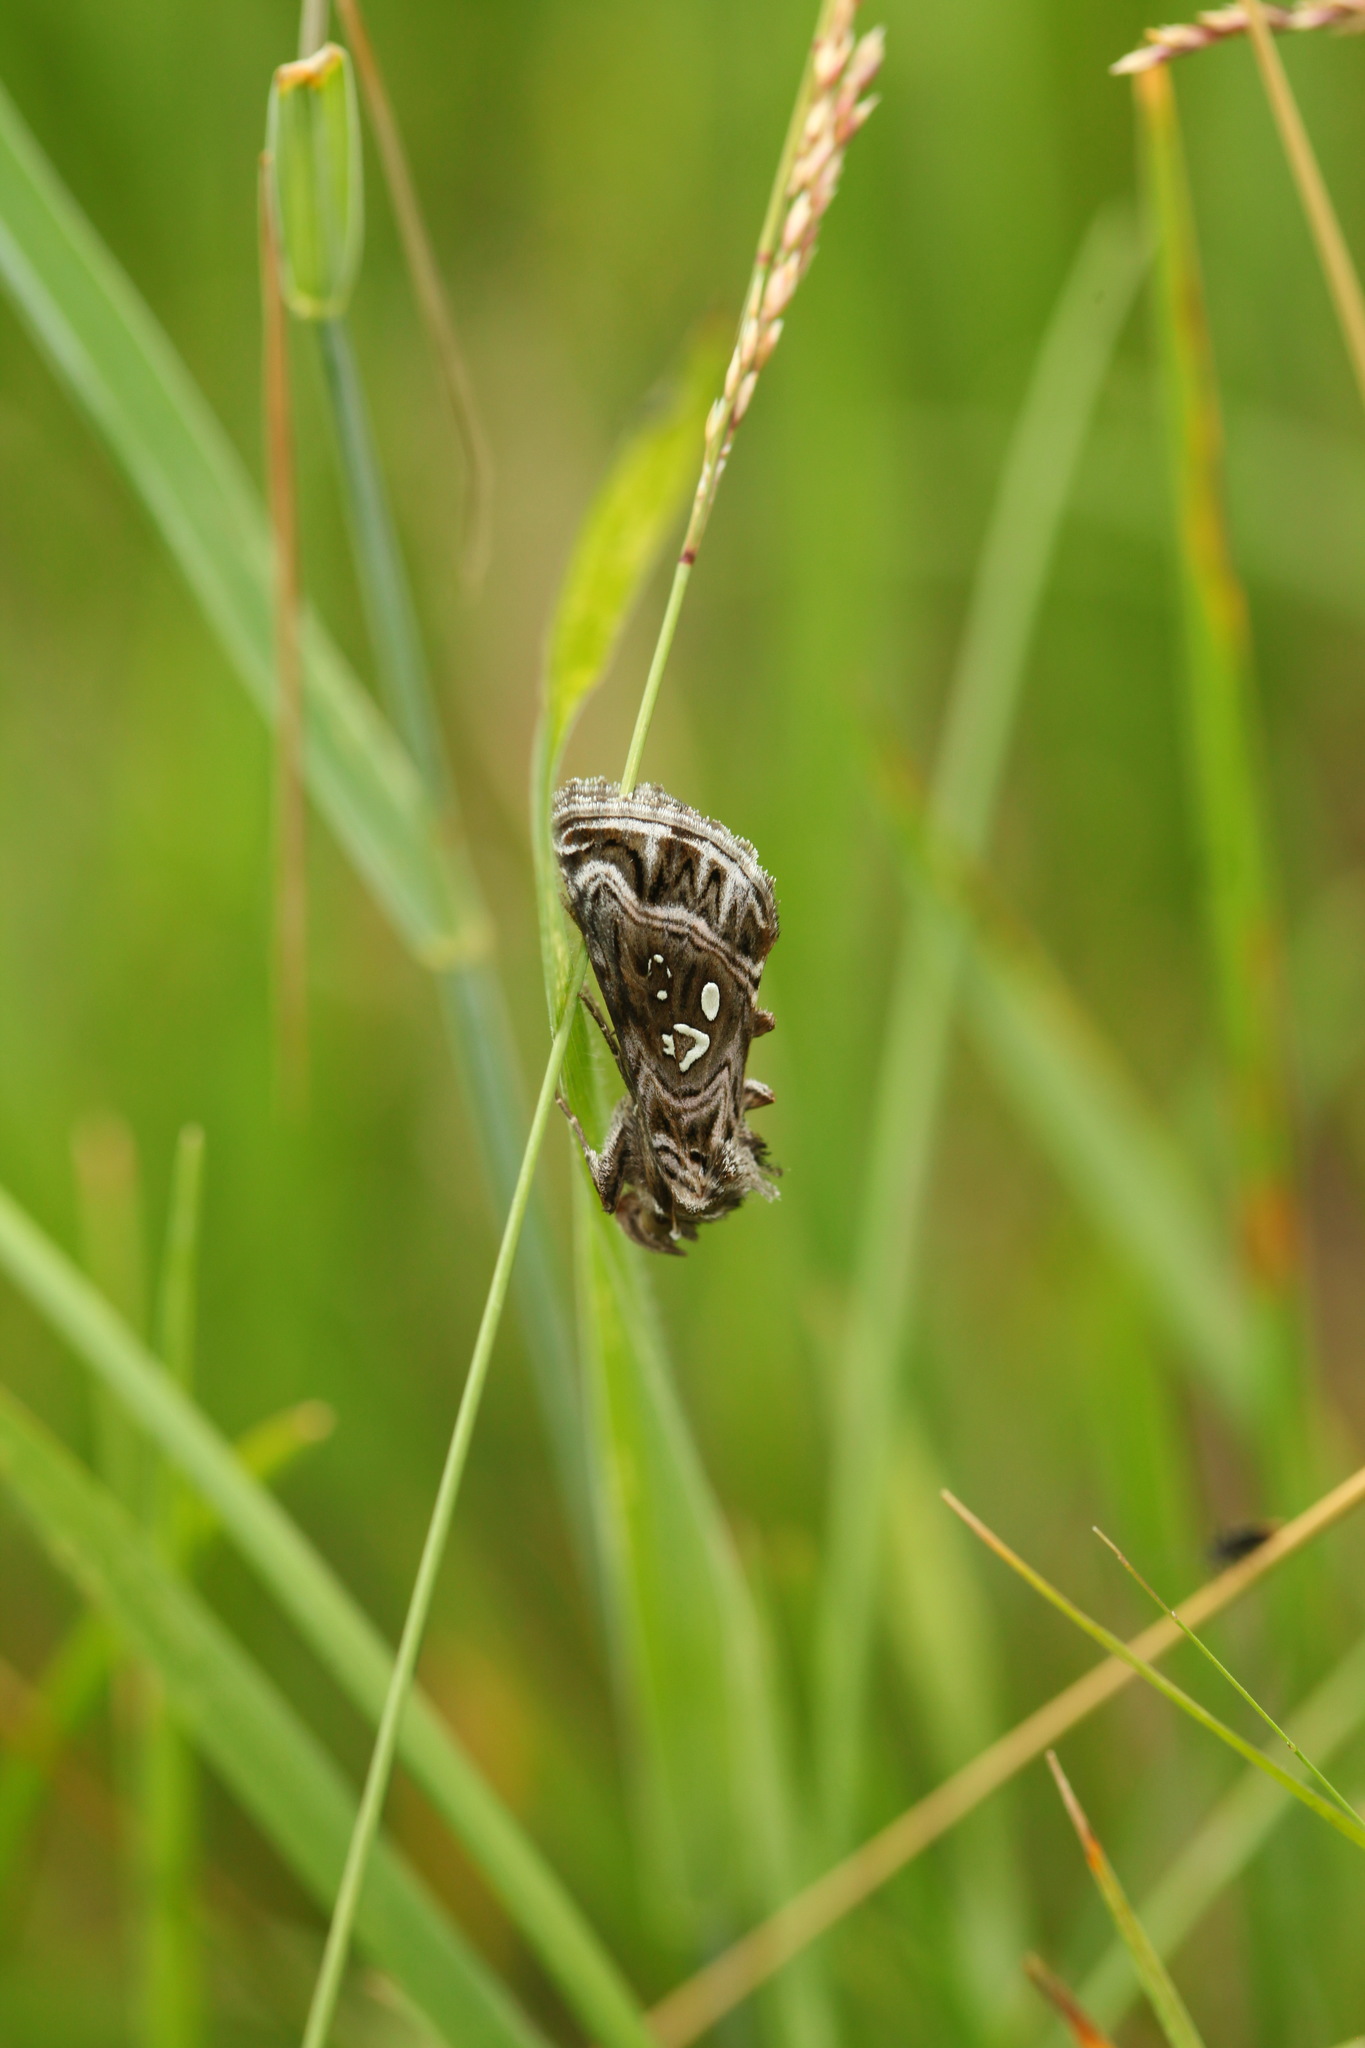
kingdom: Animalia
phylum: Arthropoda
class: Insecta
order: Lepidoptera
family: Noctuidae
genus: Panchrysia
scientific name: Panchrysia ornata
